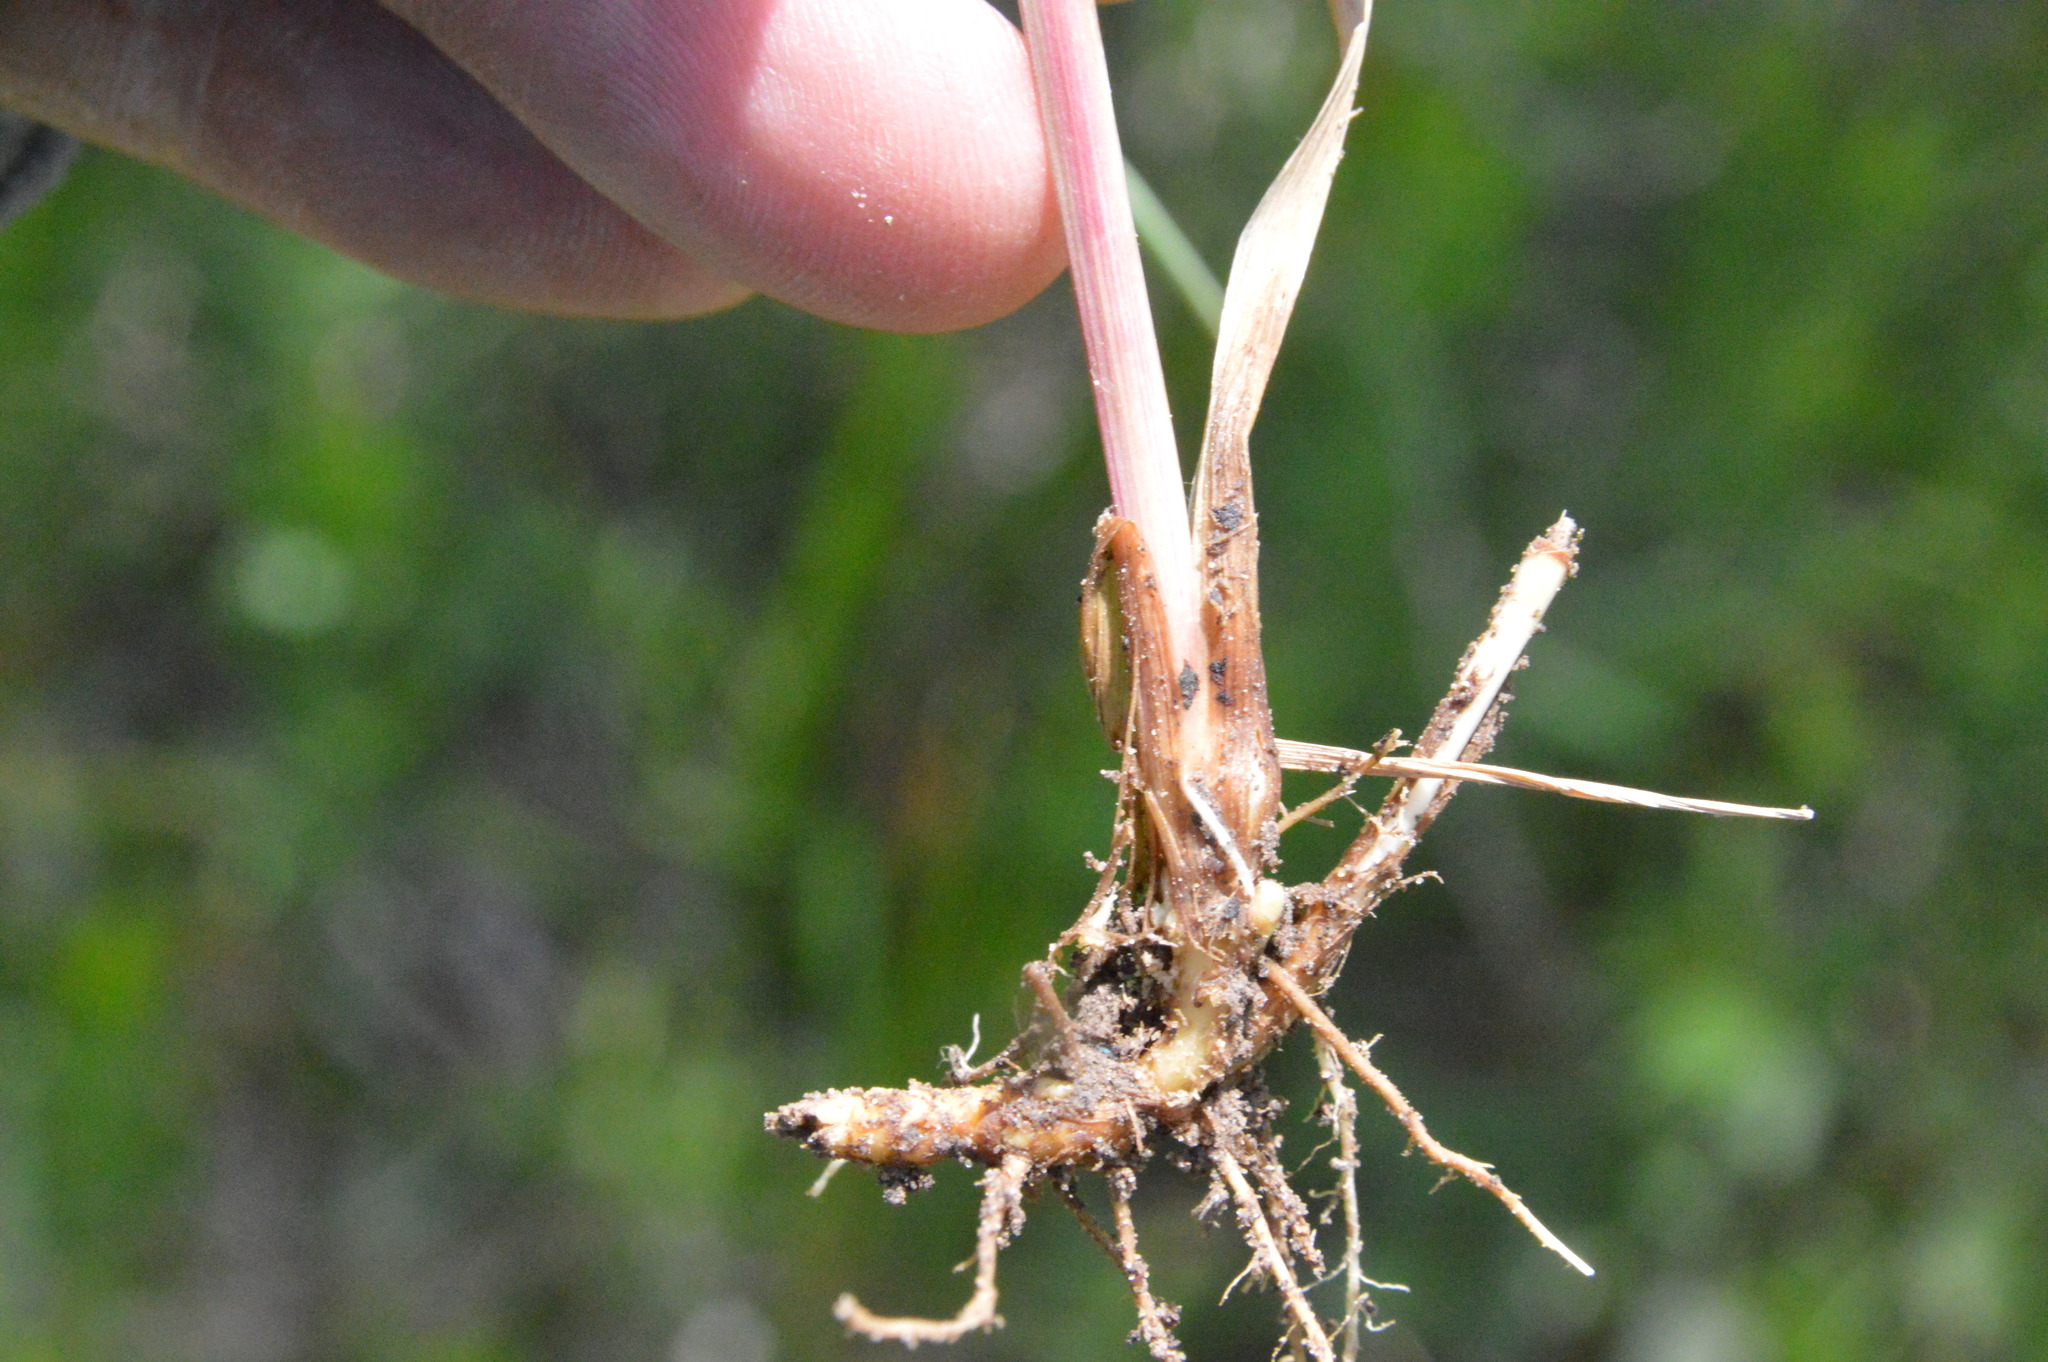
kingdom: Plantae
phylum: Tracheophyta
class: Liliopsida
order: Poales
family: Poaceae
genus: Setaria
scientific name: Setaria parviflora
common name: Knotroot bristle-grass
